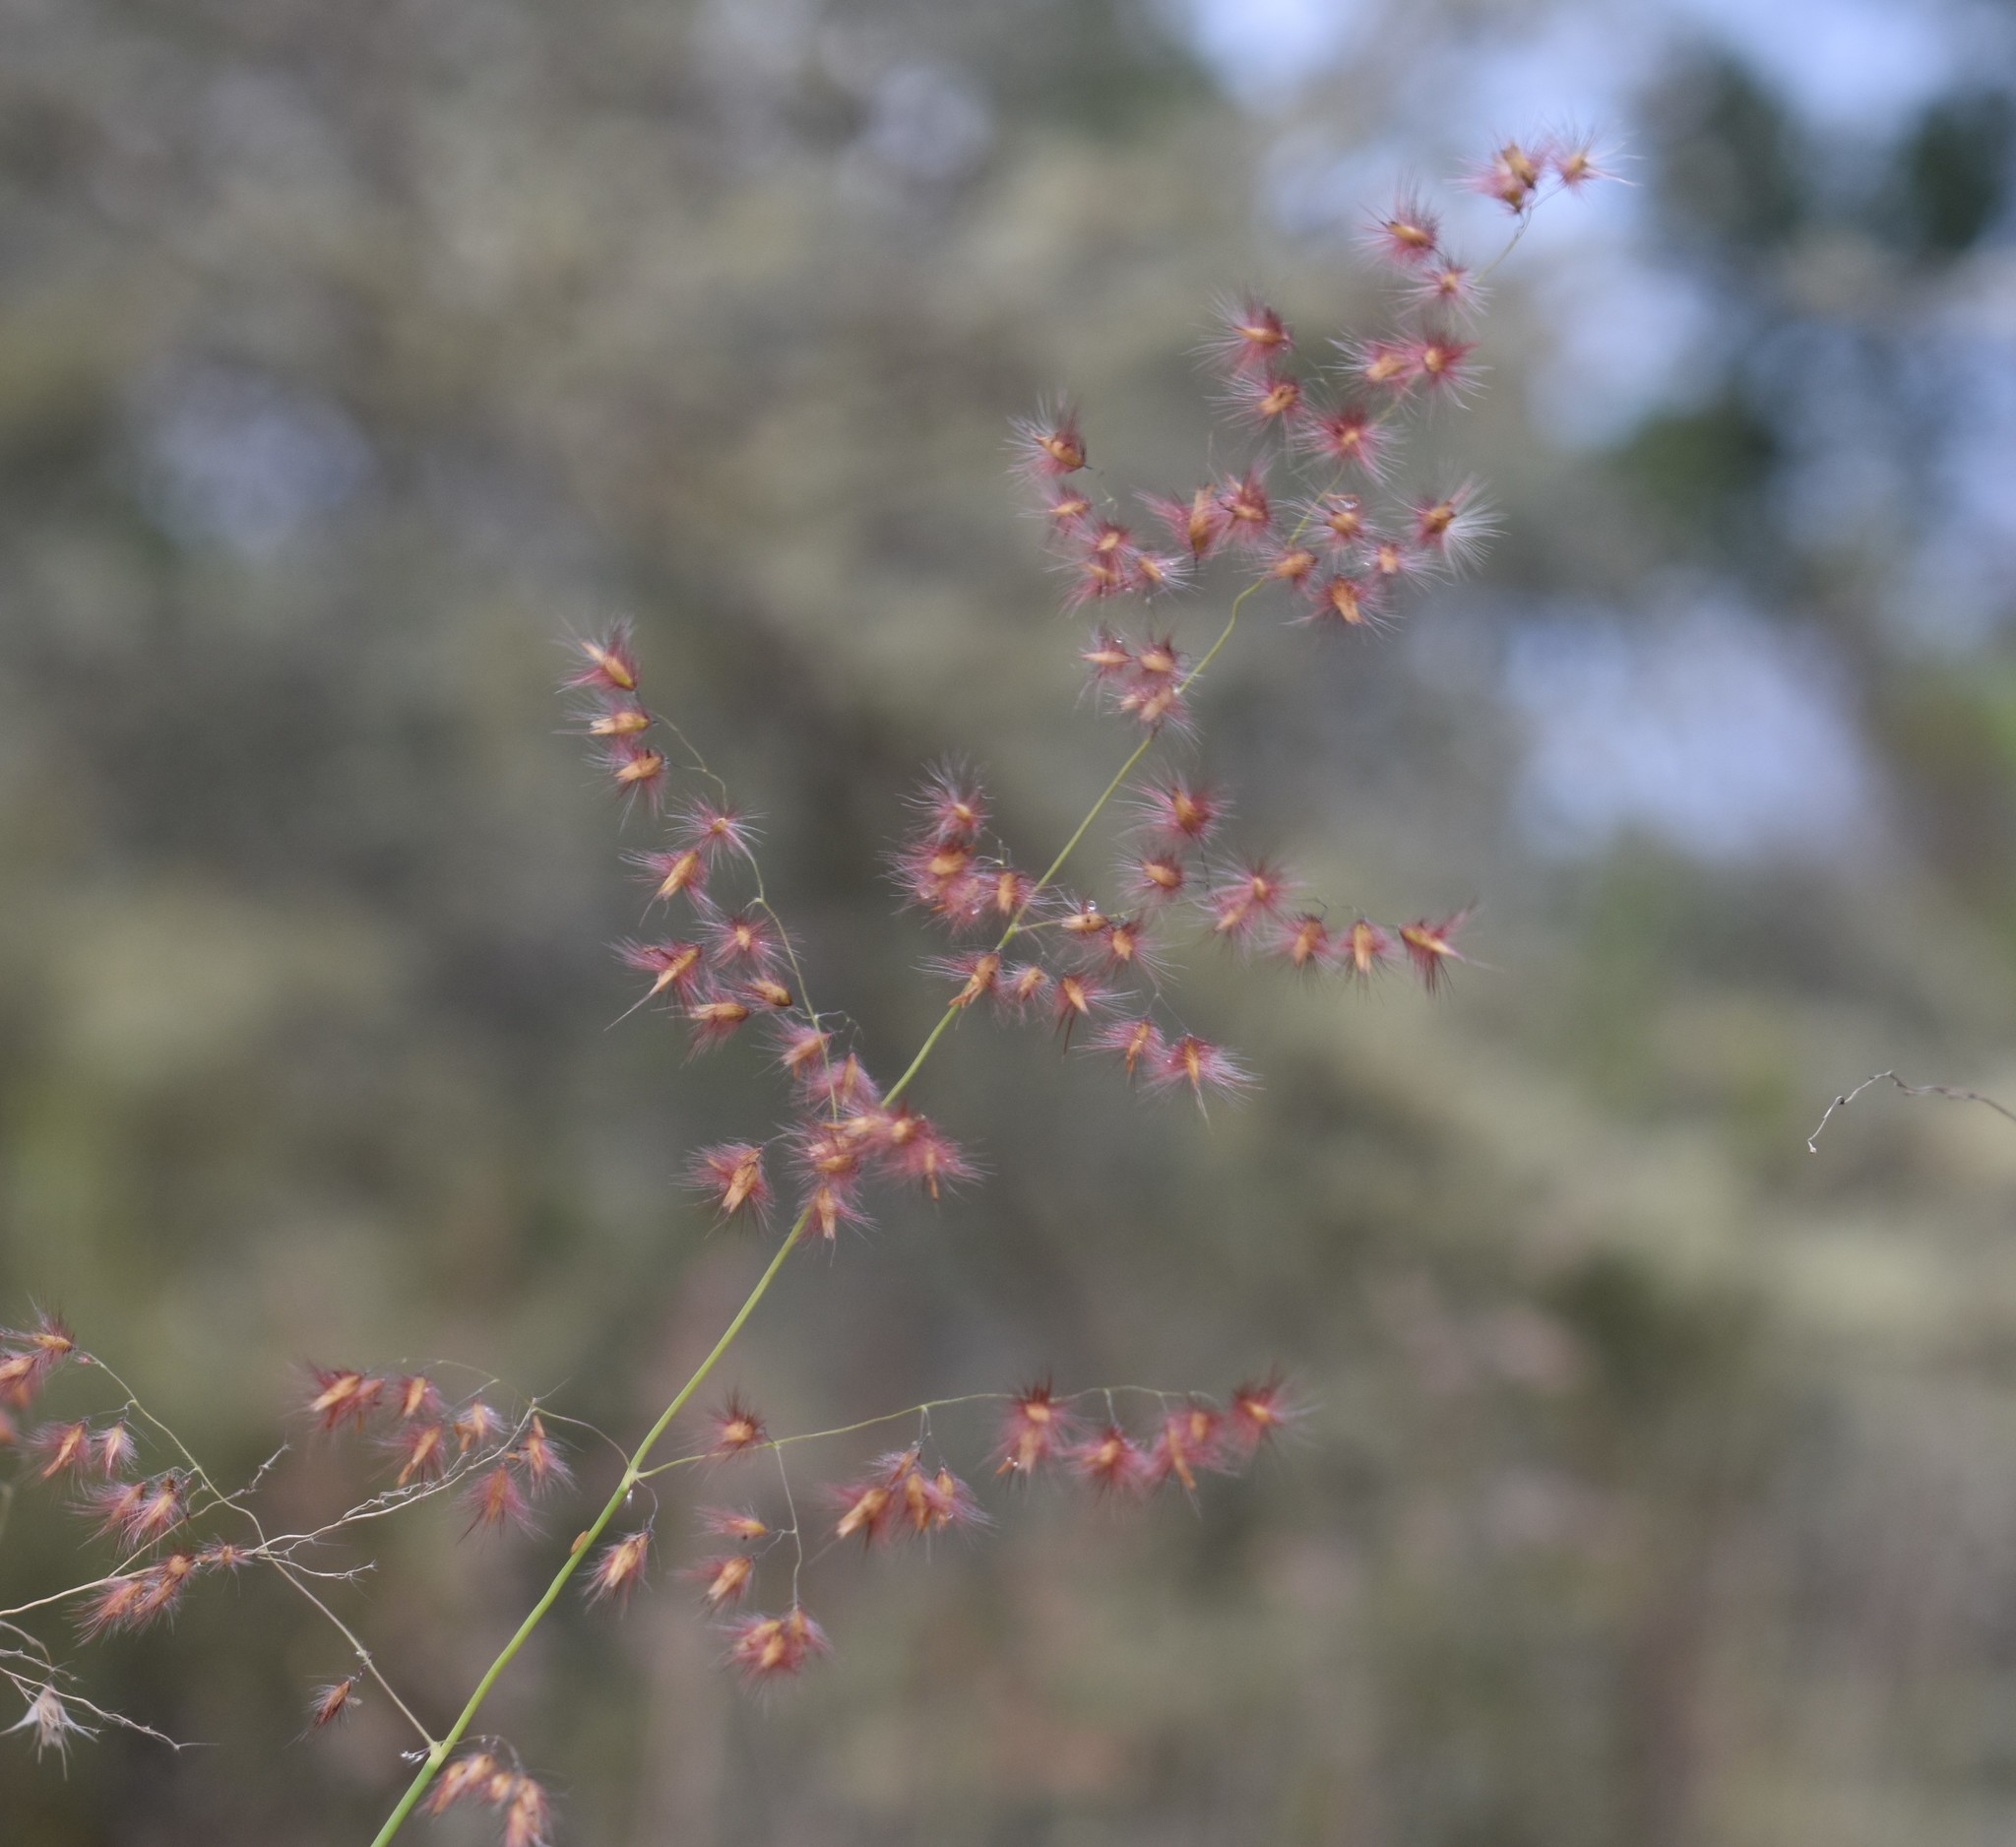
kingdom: Plantae
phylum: Tracheophyta
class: Liliopsida
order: Poales
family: Poaceae
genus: Melinis
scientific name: Melinis repens
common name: Rose natal grass
